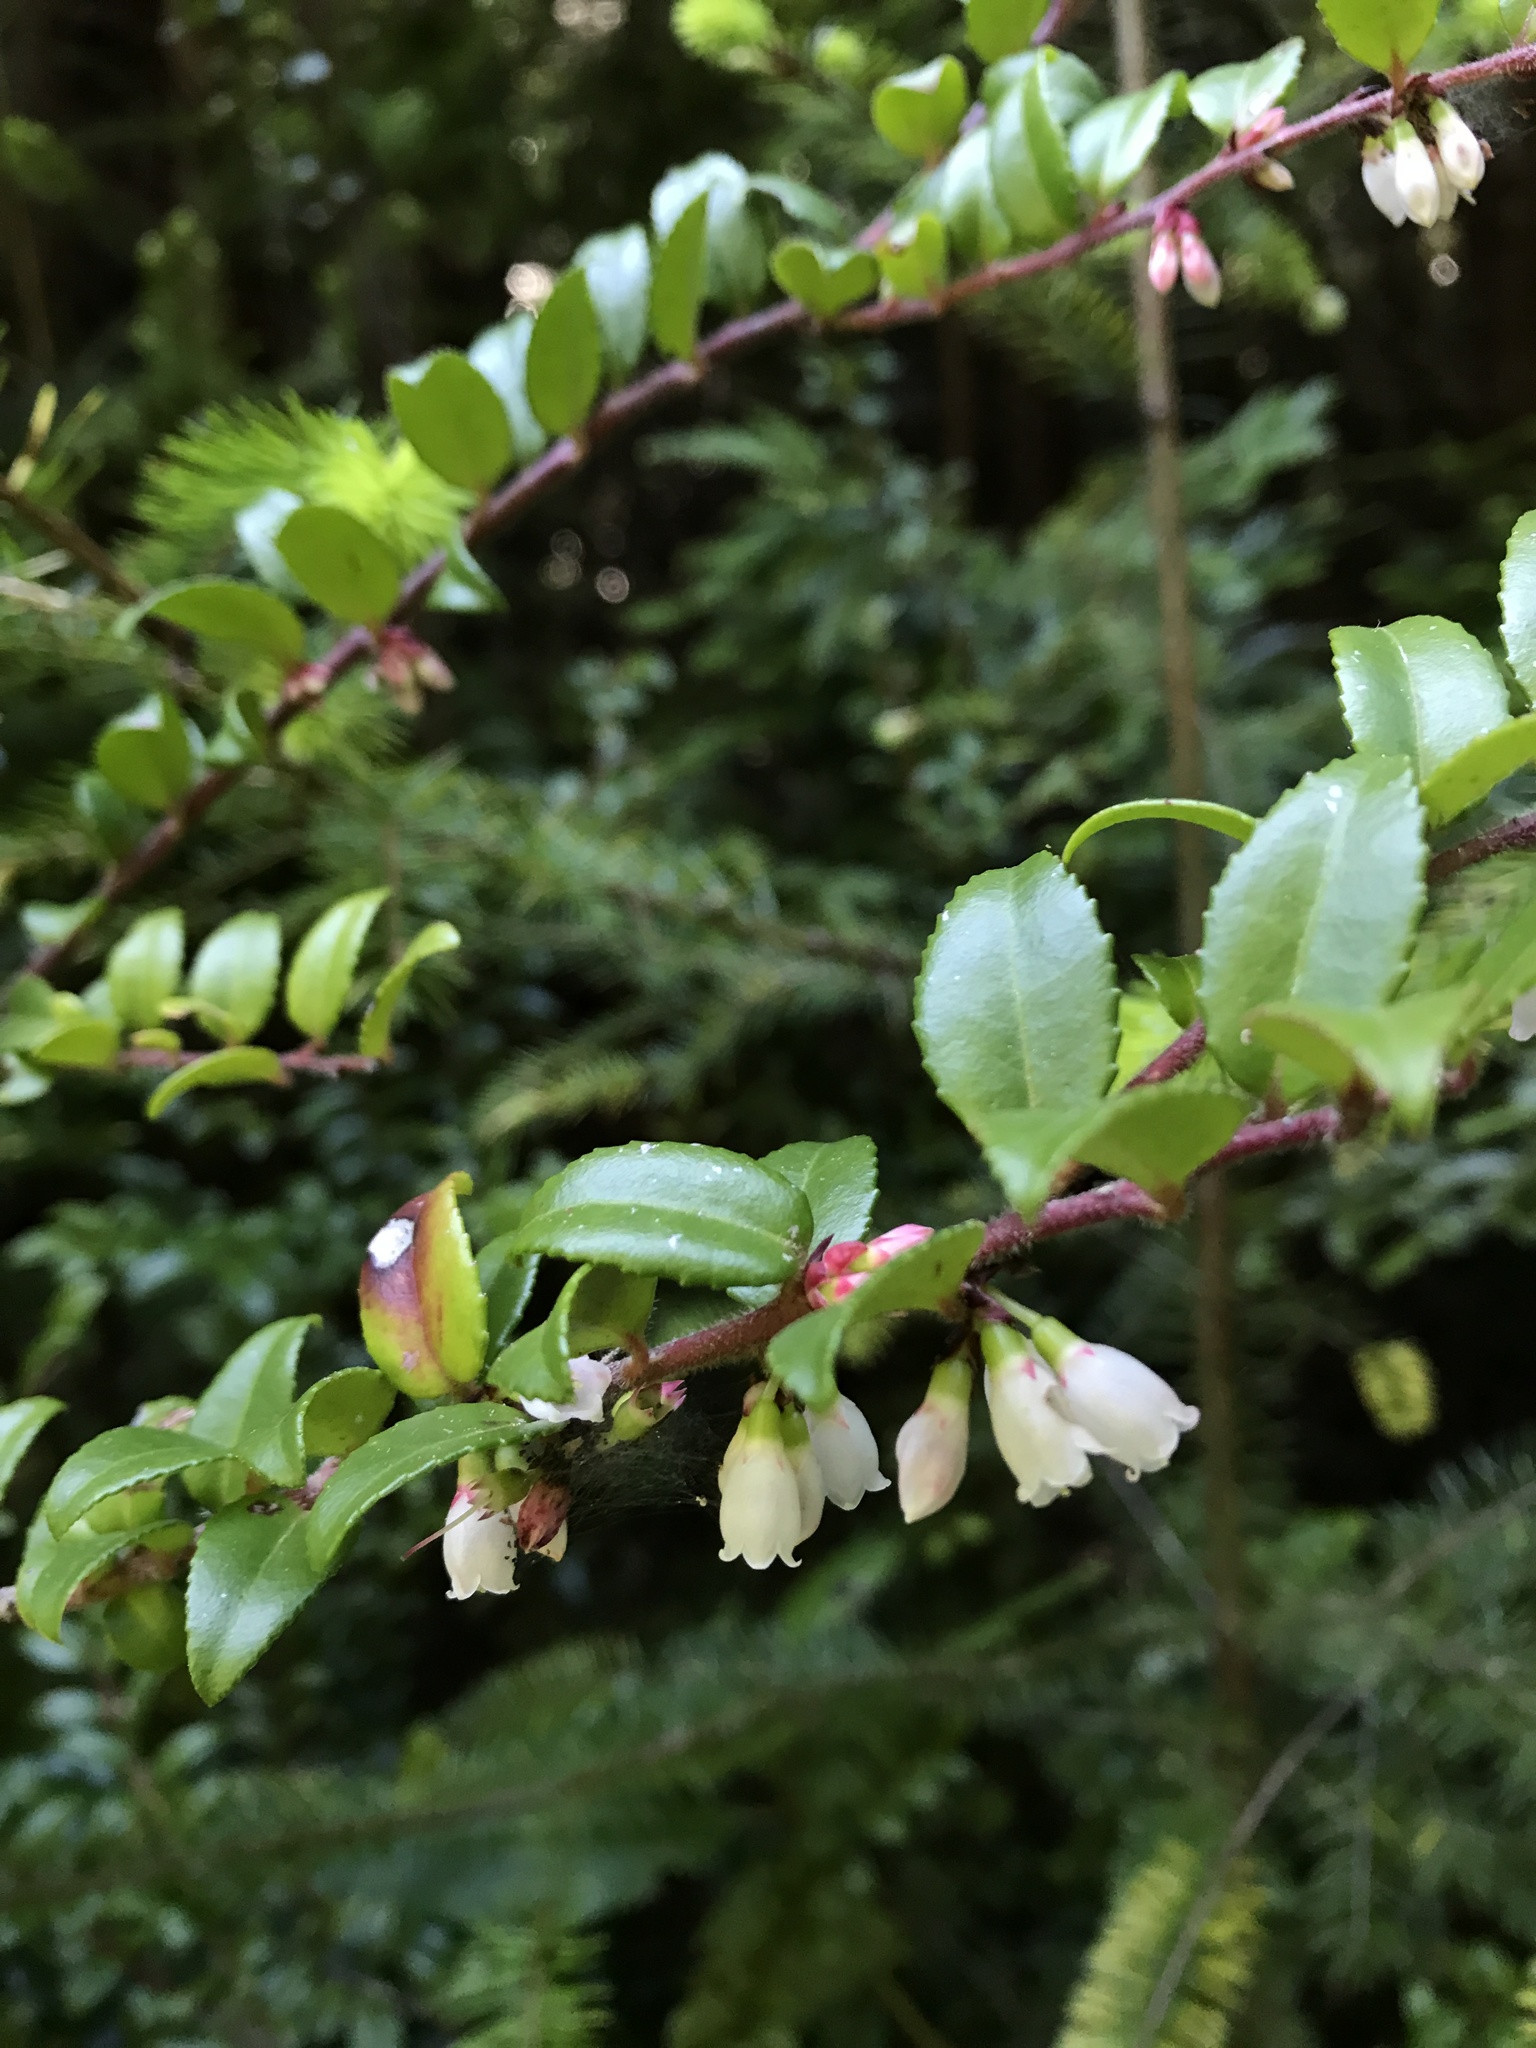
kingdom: Plantae
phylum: Tracheophyta
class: Magnoliopsida
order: Ericales
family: Ericaceae
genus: Vaccinium
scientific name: Vaccinium ovatum
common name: California-huckleberry
